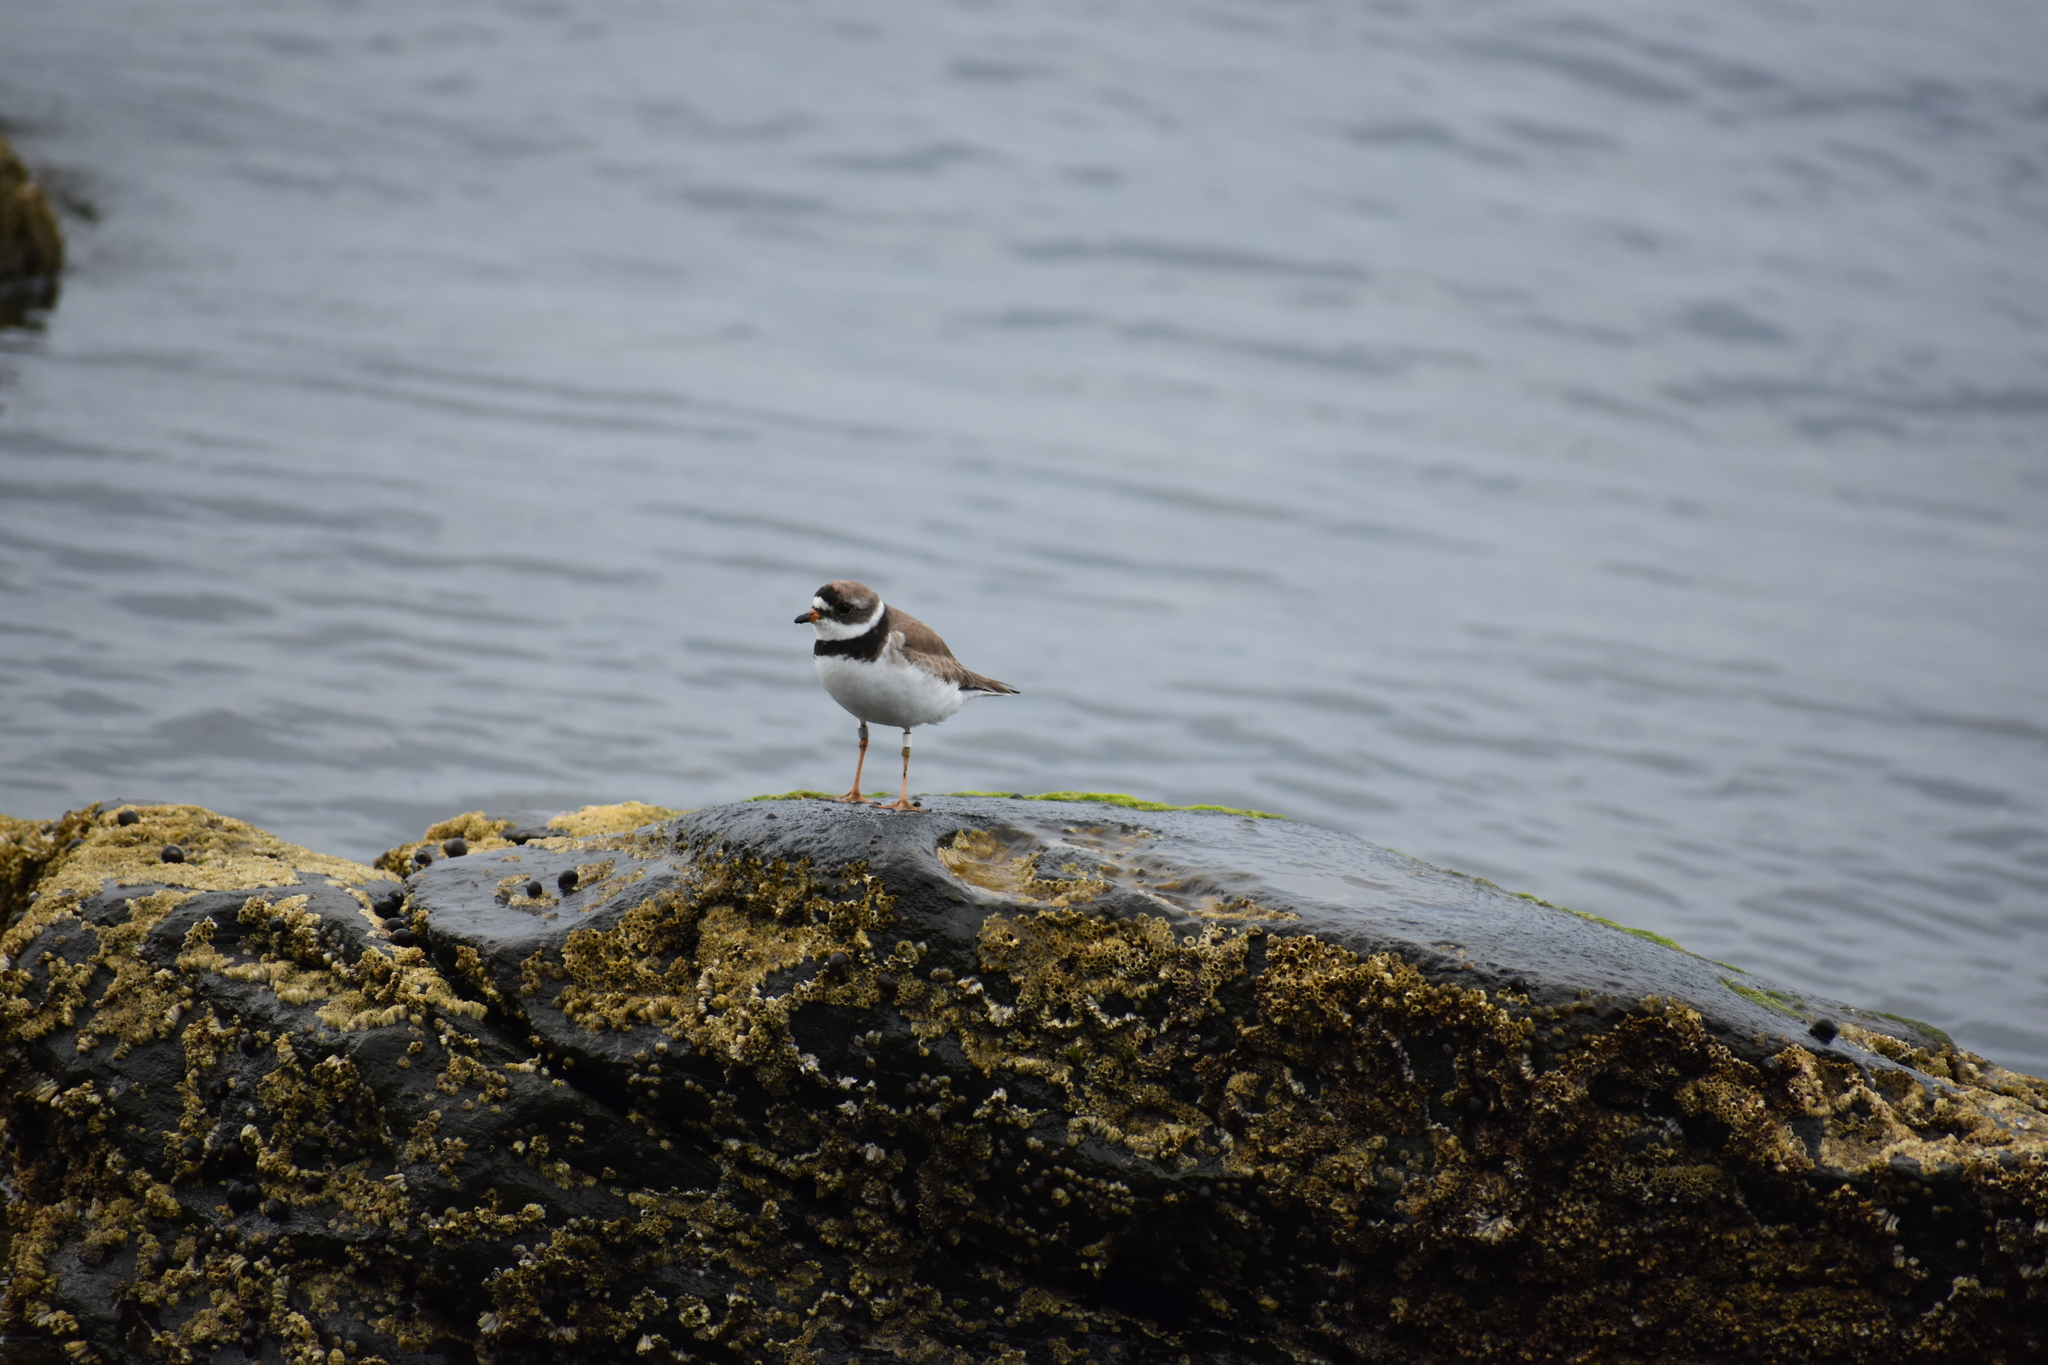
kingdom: Animalia
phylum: Chordata
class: Aves
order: Charadriiformes
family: Charadriidae
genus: Charadrius
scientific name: Charadrius semipalmatus
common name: Semipalmated plover
